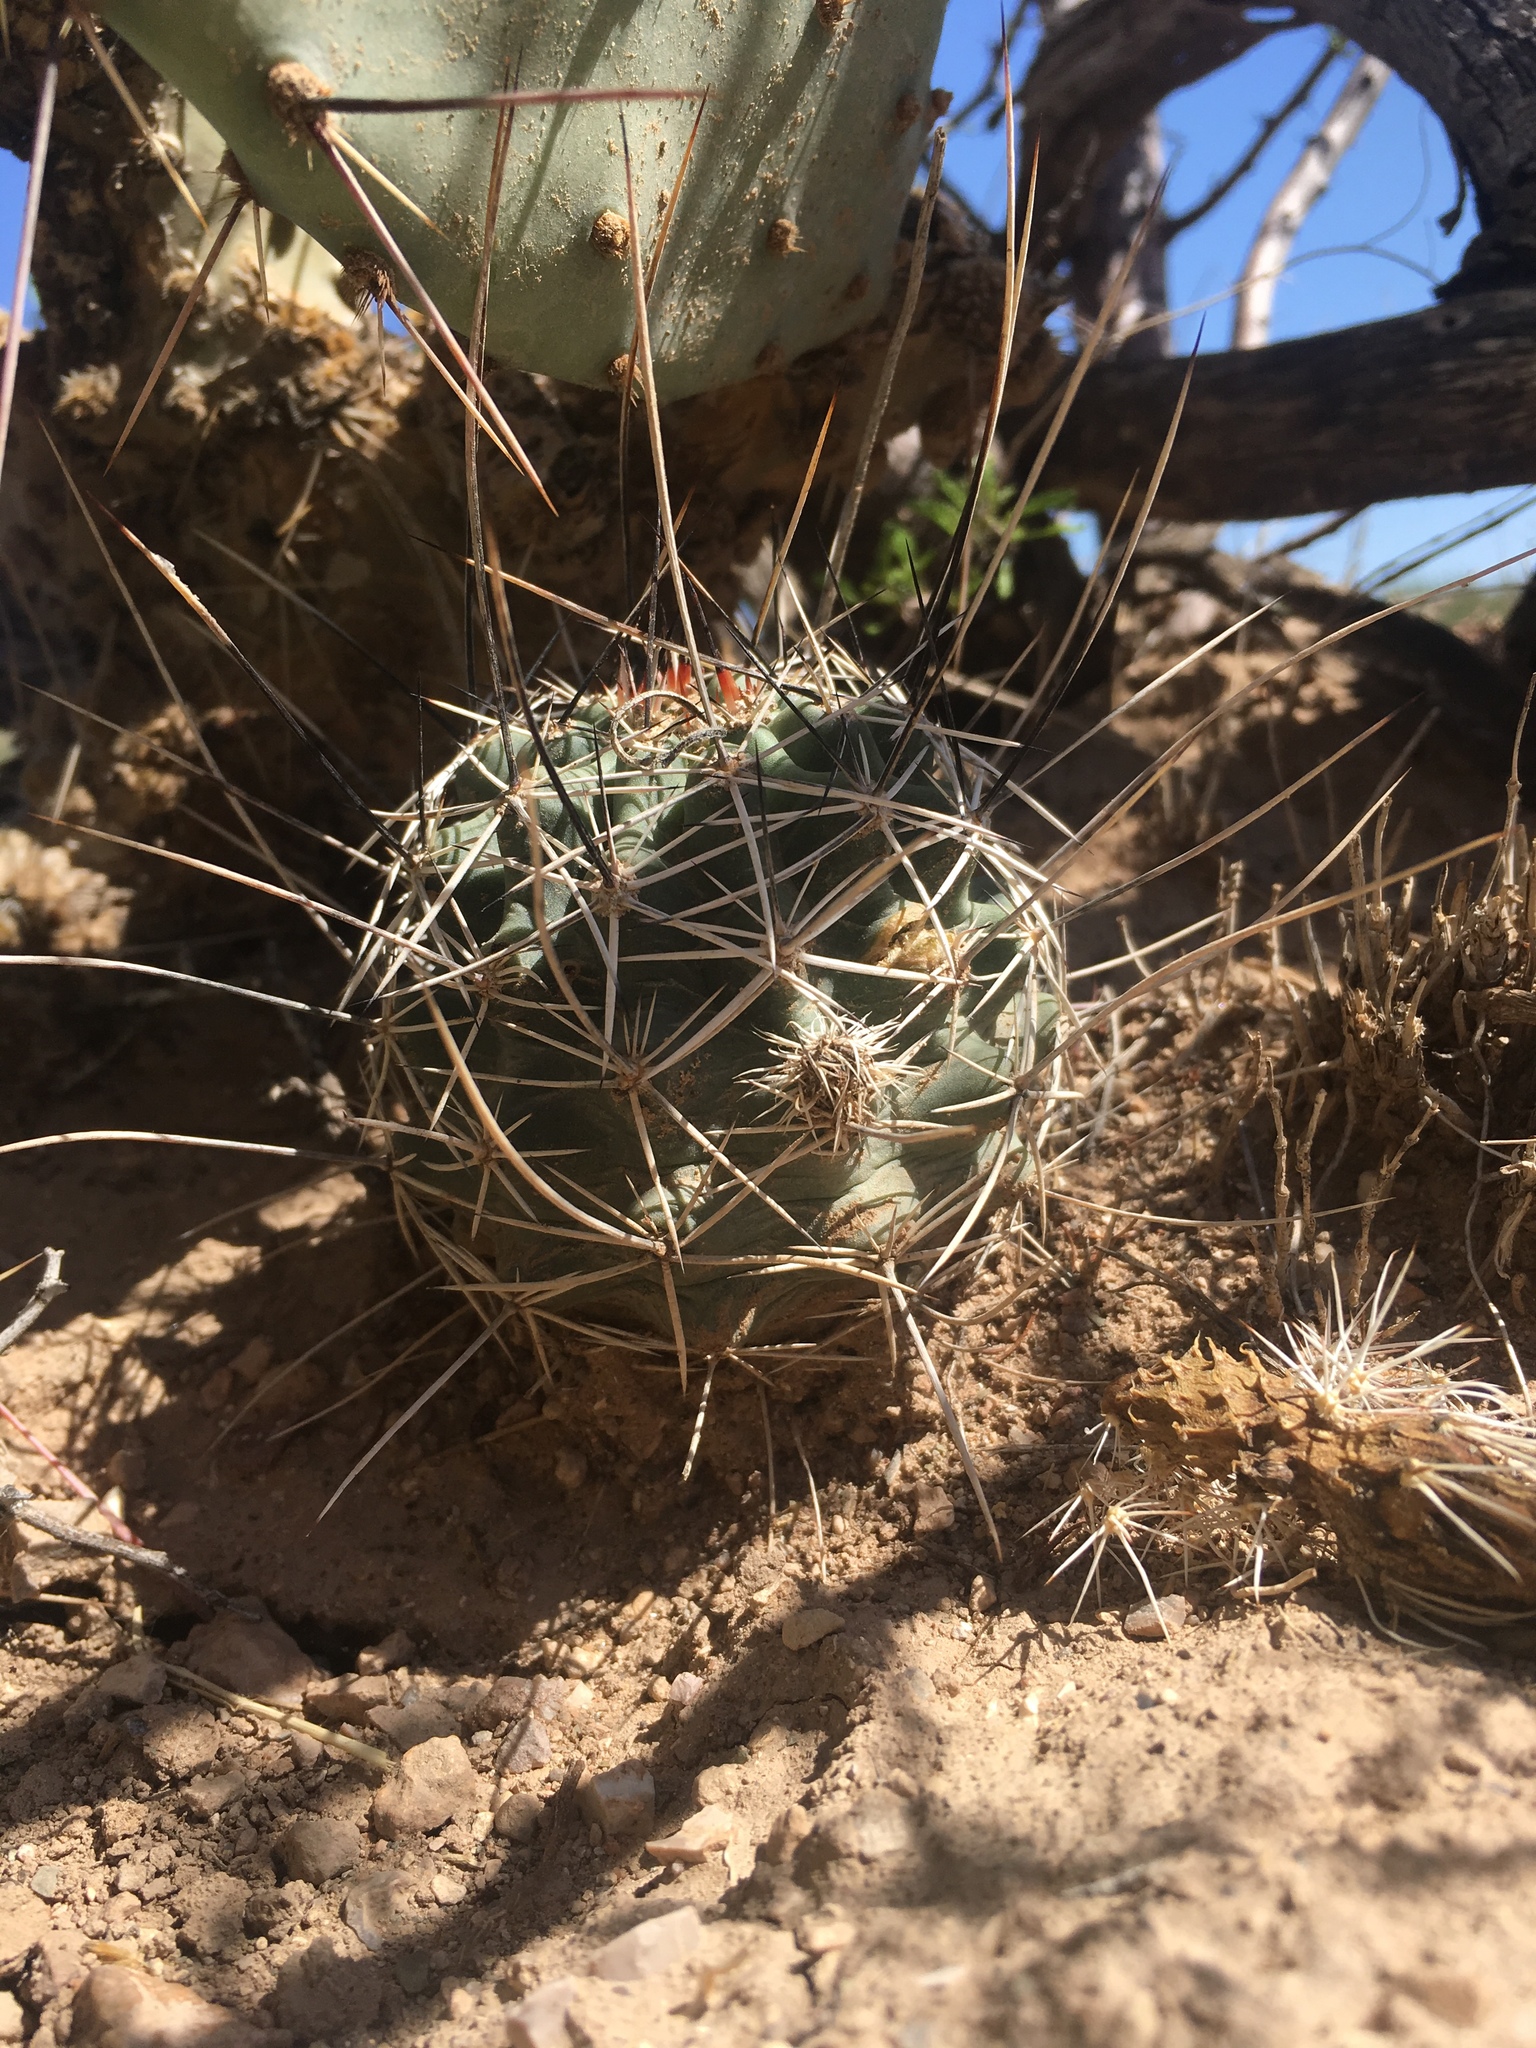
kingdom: Plantae
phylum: Tracheophyta
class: Magnoliopsida
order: Caryophyllales
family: Cactaceae
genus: Echinocereus
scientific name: Echinocereus fendleri
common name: Fendler's hedgehog cactus
